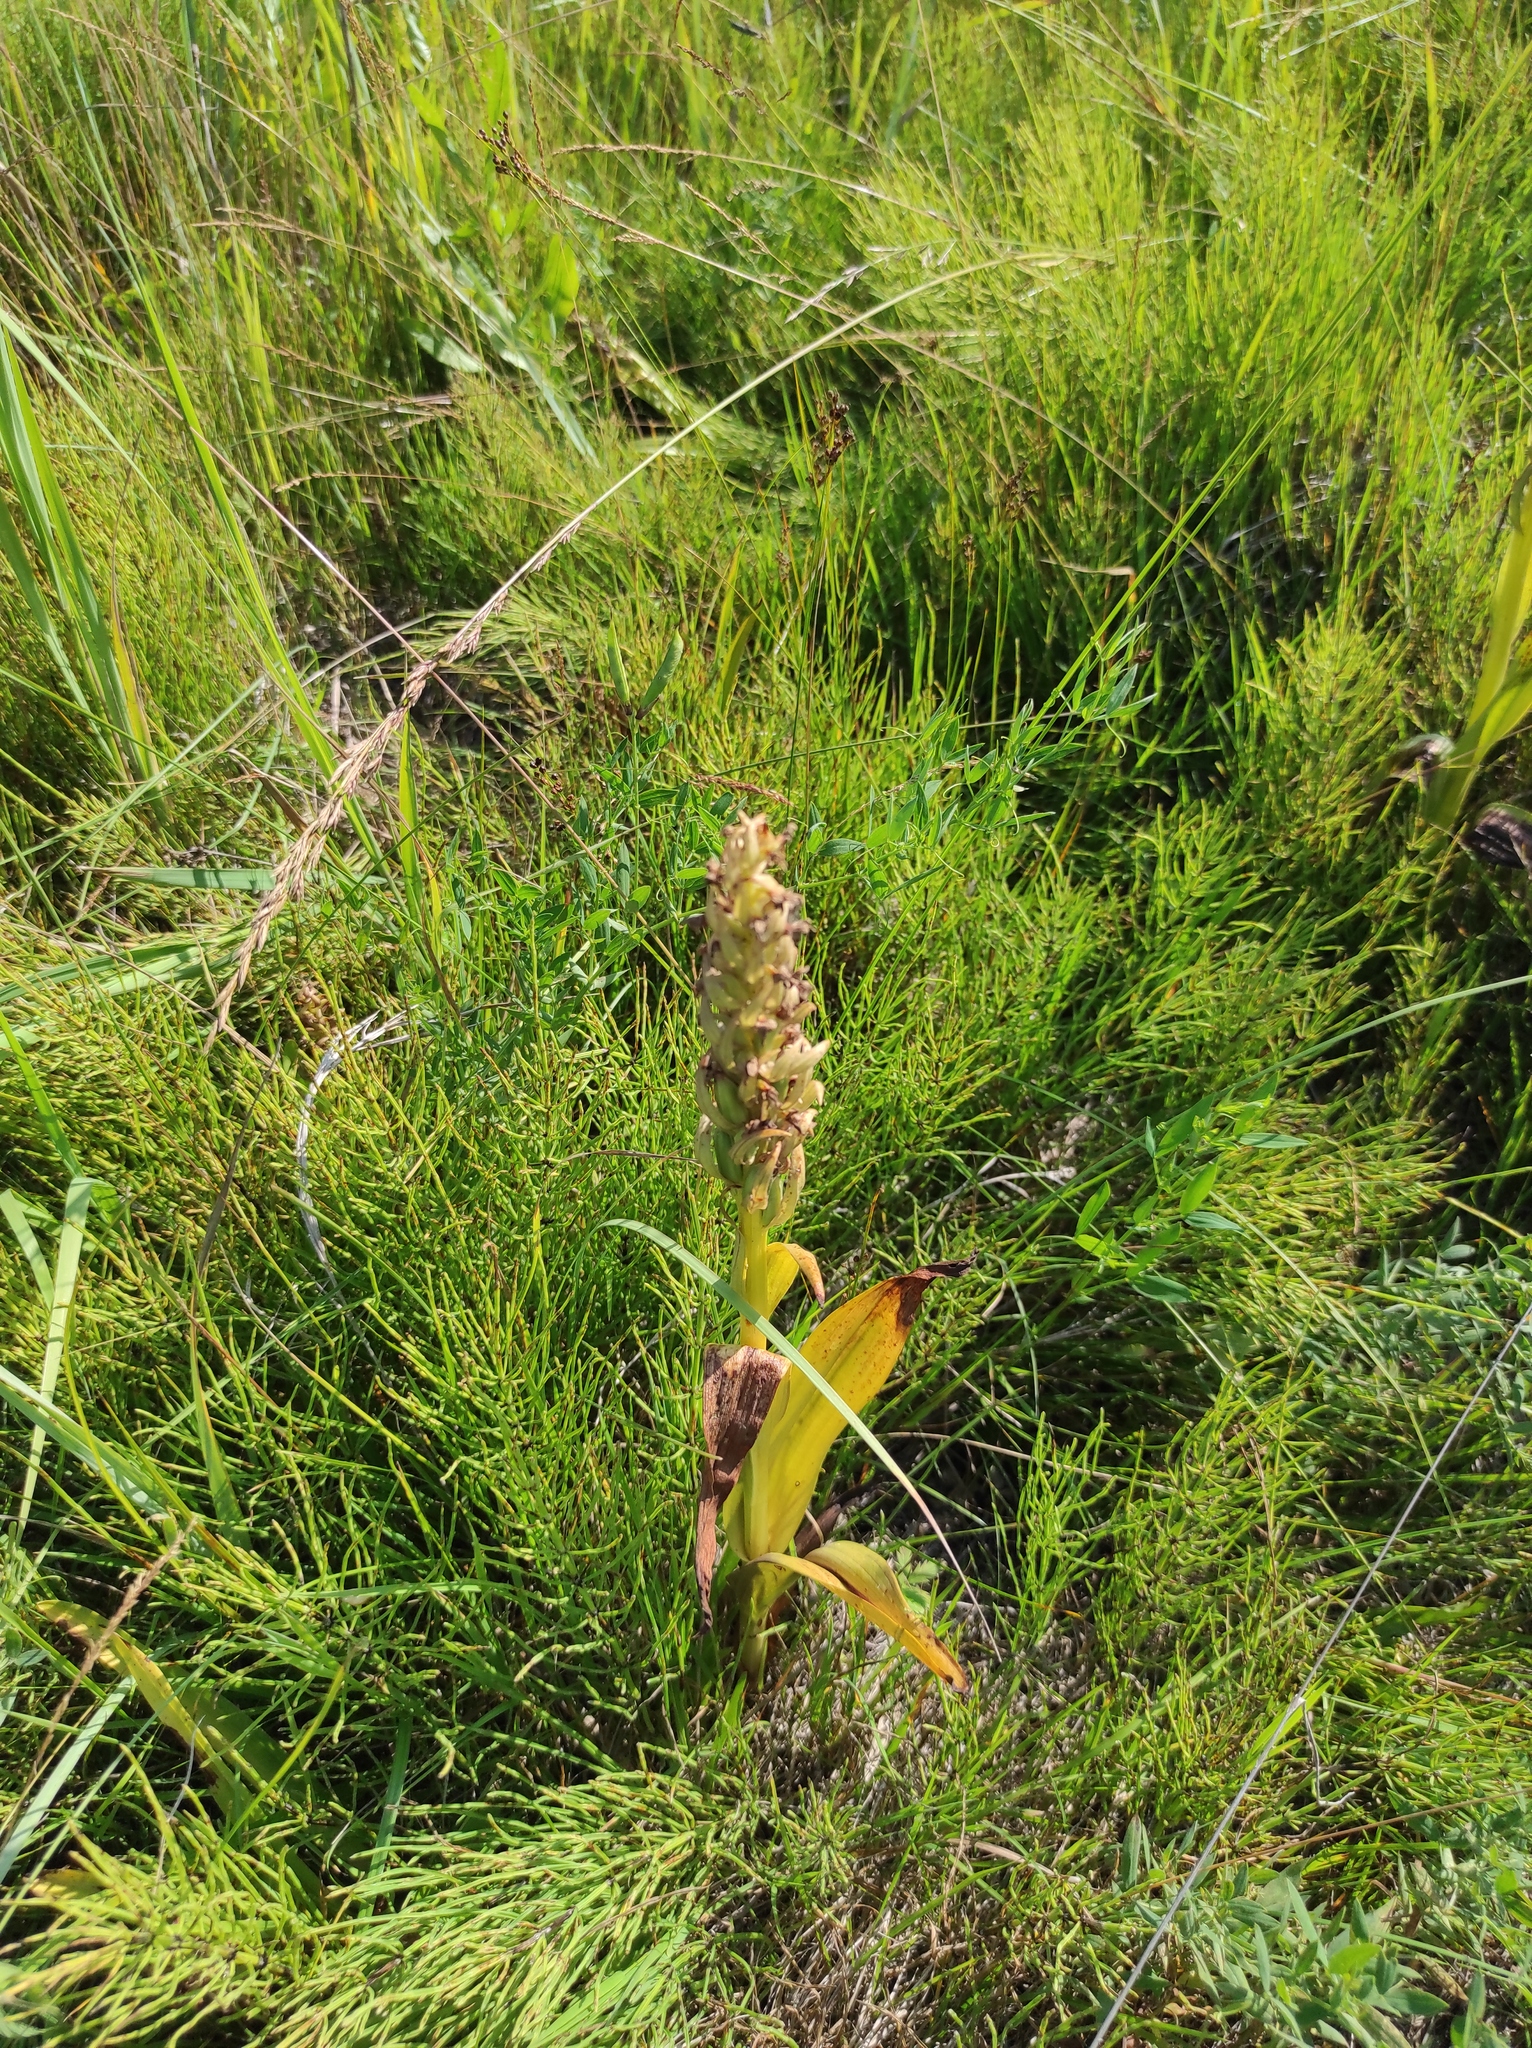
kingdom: Plantae
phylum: Tracheophyta
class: Liliopsida
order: Asparagales
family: Orchidaceae
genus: Dactylorhiza
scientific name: Dactylorhiza incarnata
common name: Early marsh-orchid
